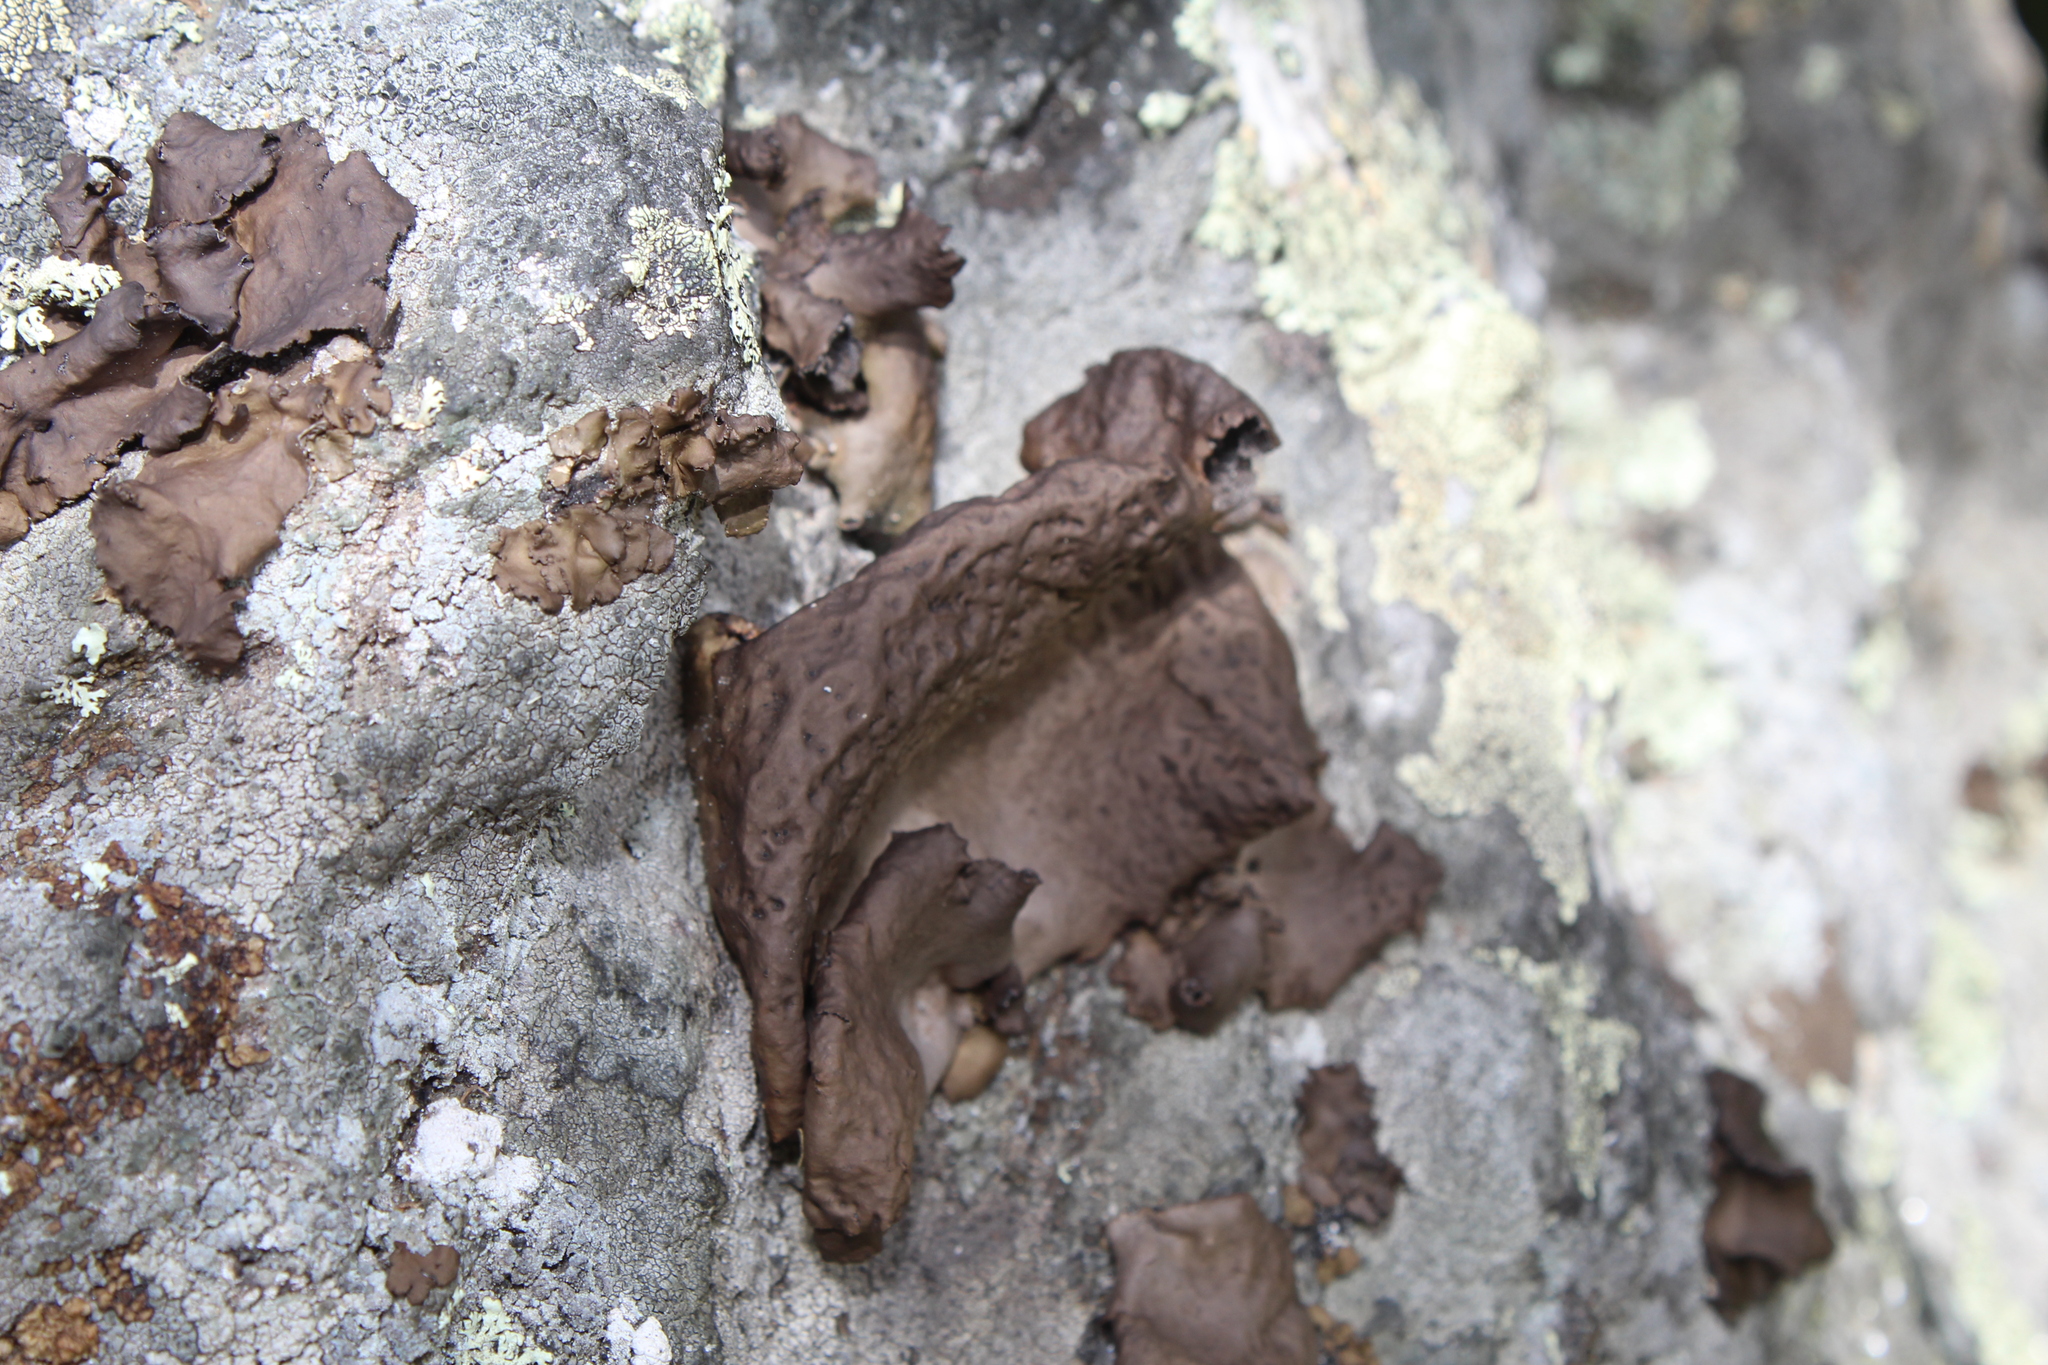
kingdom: Fungi
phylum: Ascomycota
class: Lecanoromycetes
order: Umbilicariales
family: Umbilicariaceae
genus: Umbilicaria
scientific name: Umbilicaria muhlenbergii
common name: Lesser rocktripe
